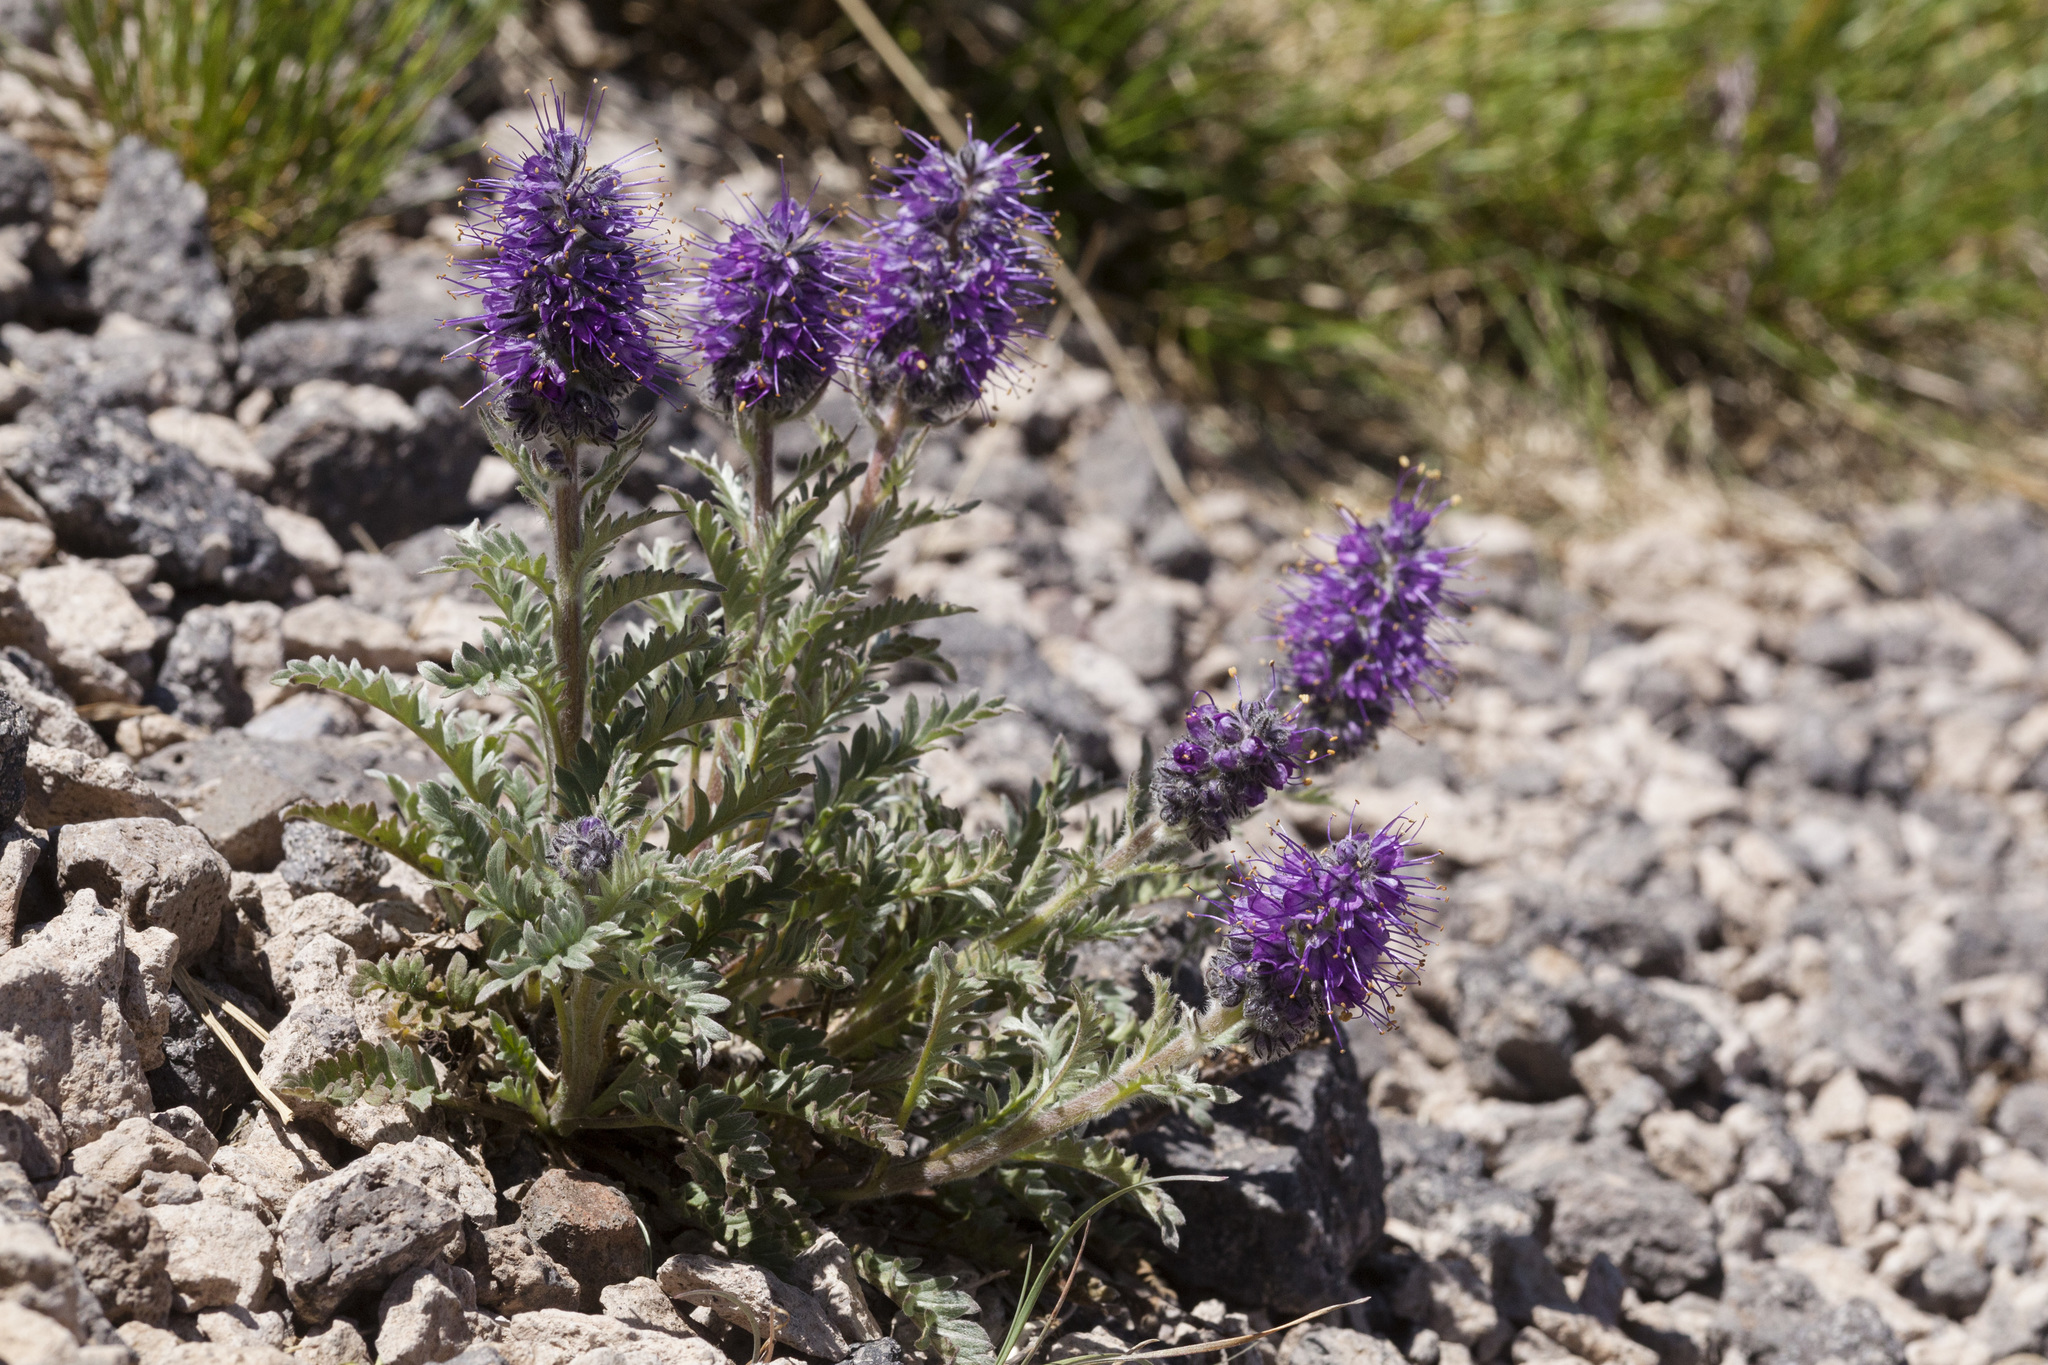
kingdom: Plantae
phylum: Tracheophyta
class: Magnoliopsida
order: Boraginales
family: Hydrophyllaceae
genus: Phacelia
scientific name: Phacelia sericea
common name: Silky phacelia
